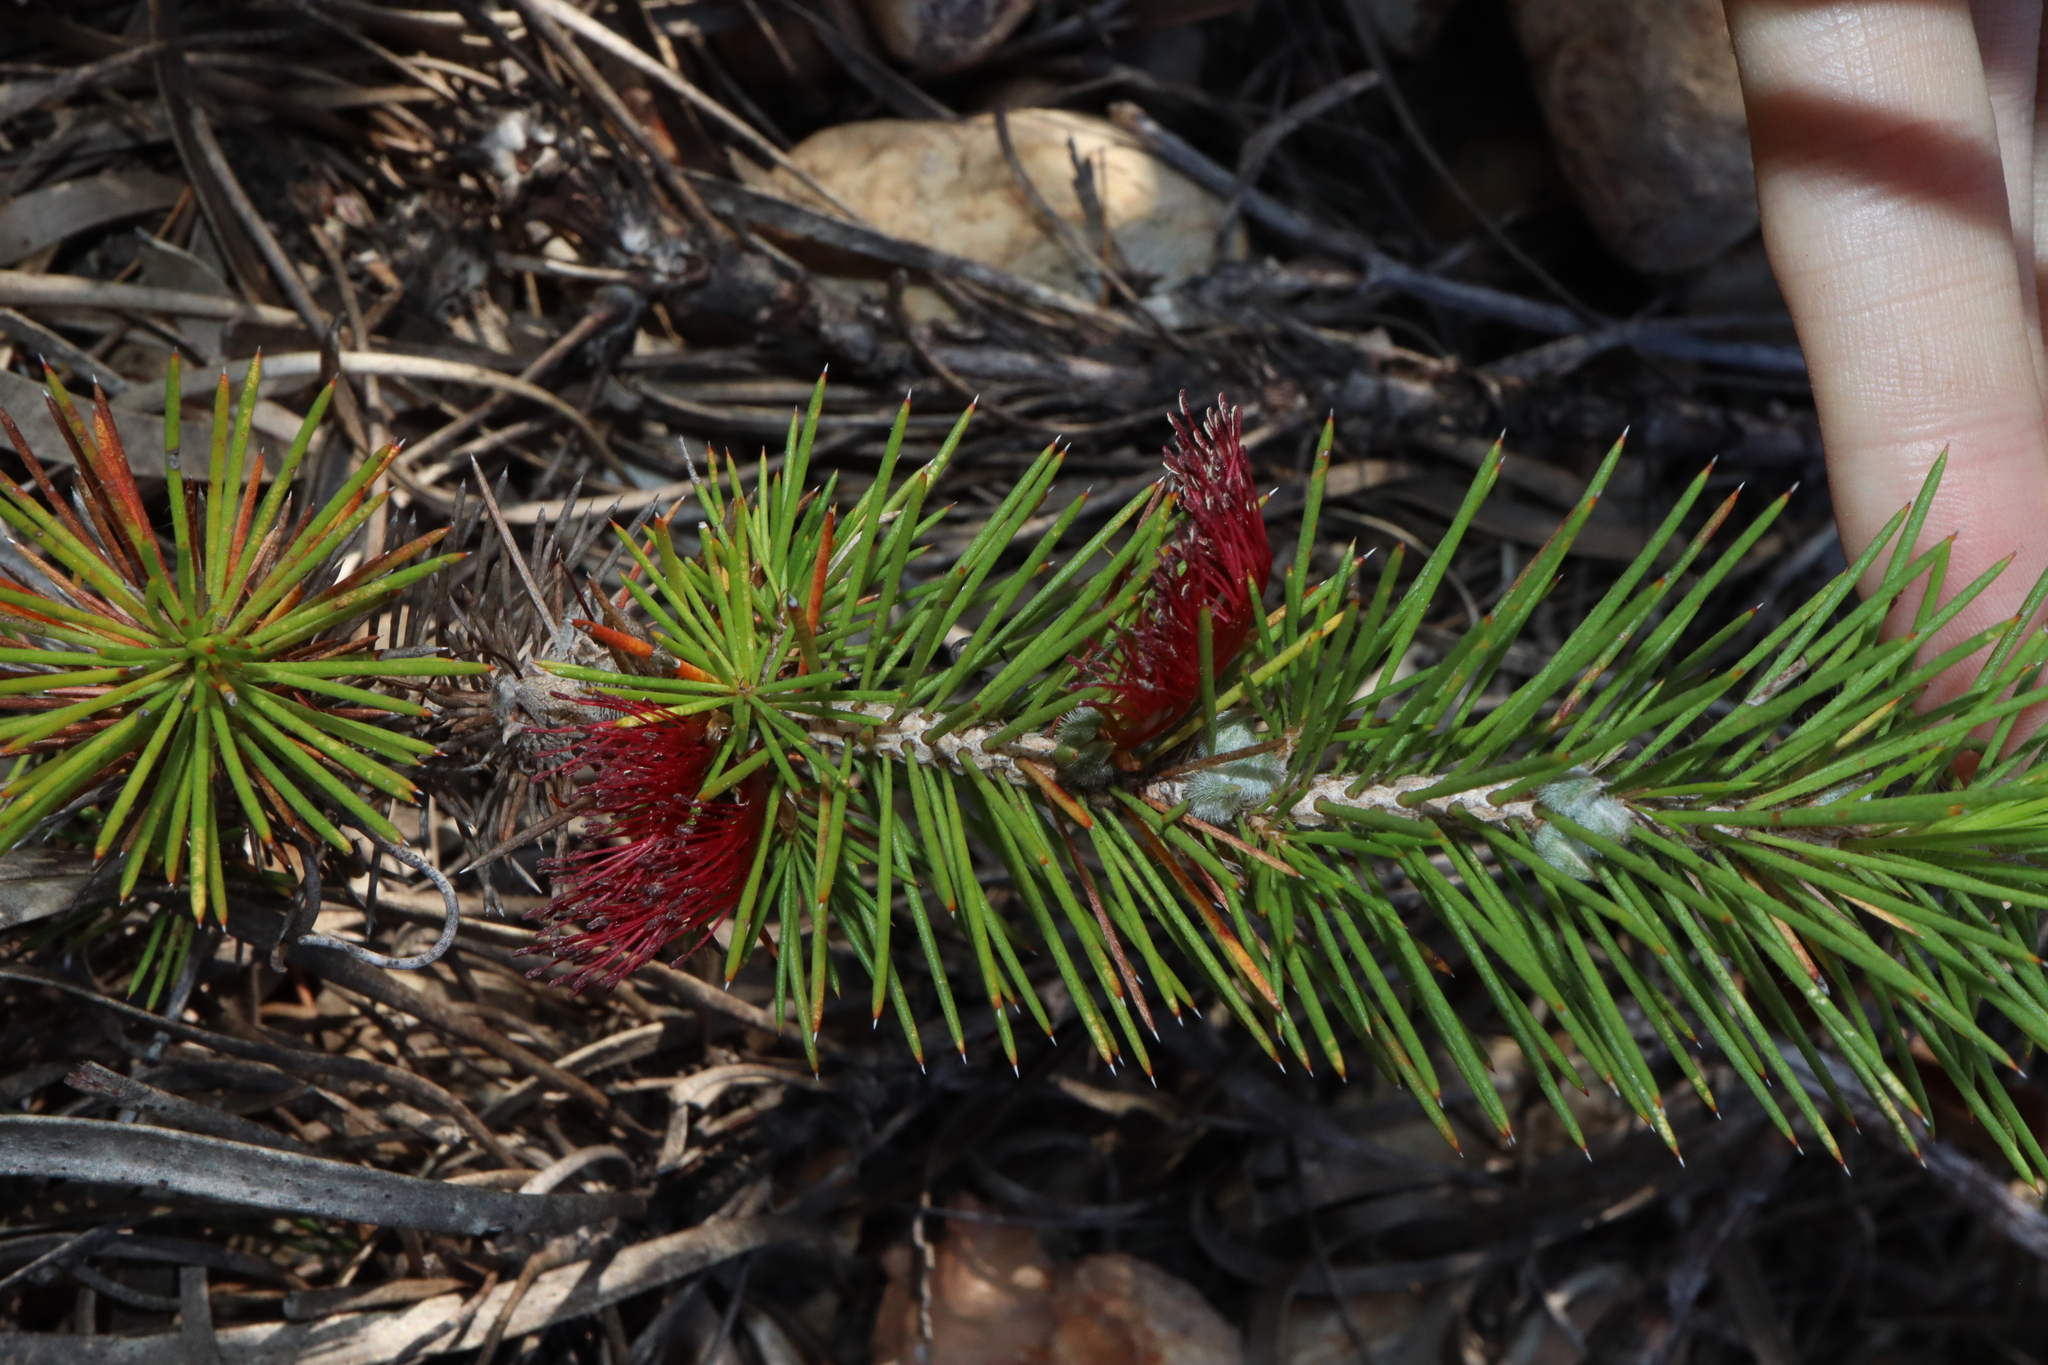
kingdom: Plantae
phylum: Tracheophyta
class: Magnoliopsida
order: Myrtales
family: Myrtaceae
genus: Melaleuca
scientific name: Melaleuca peucophylla
